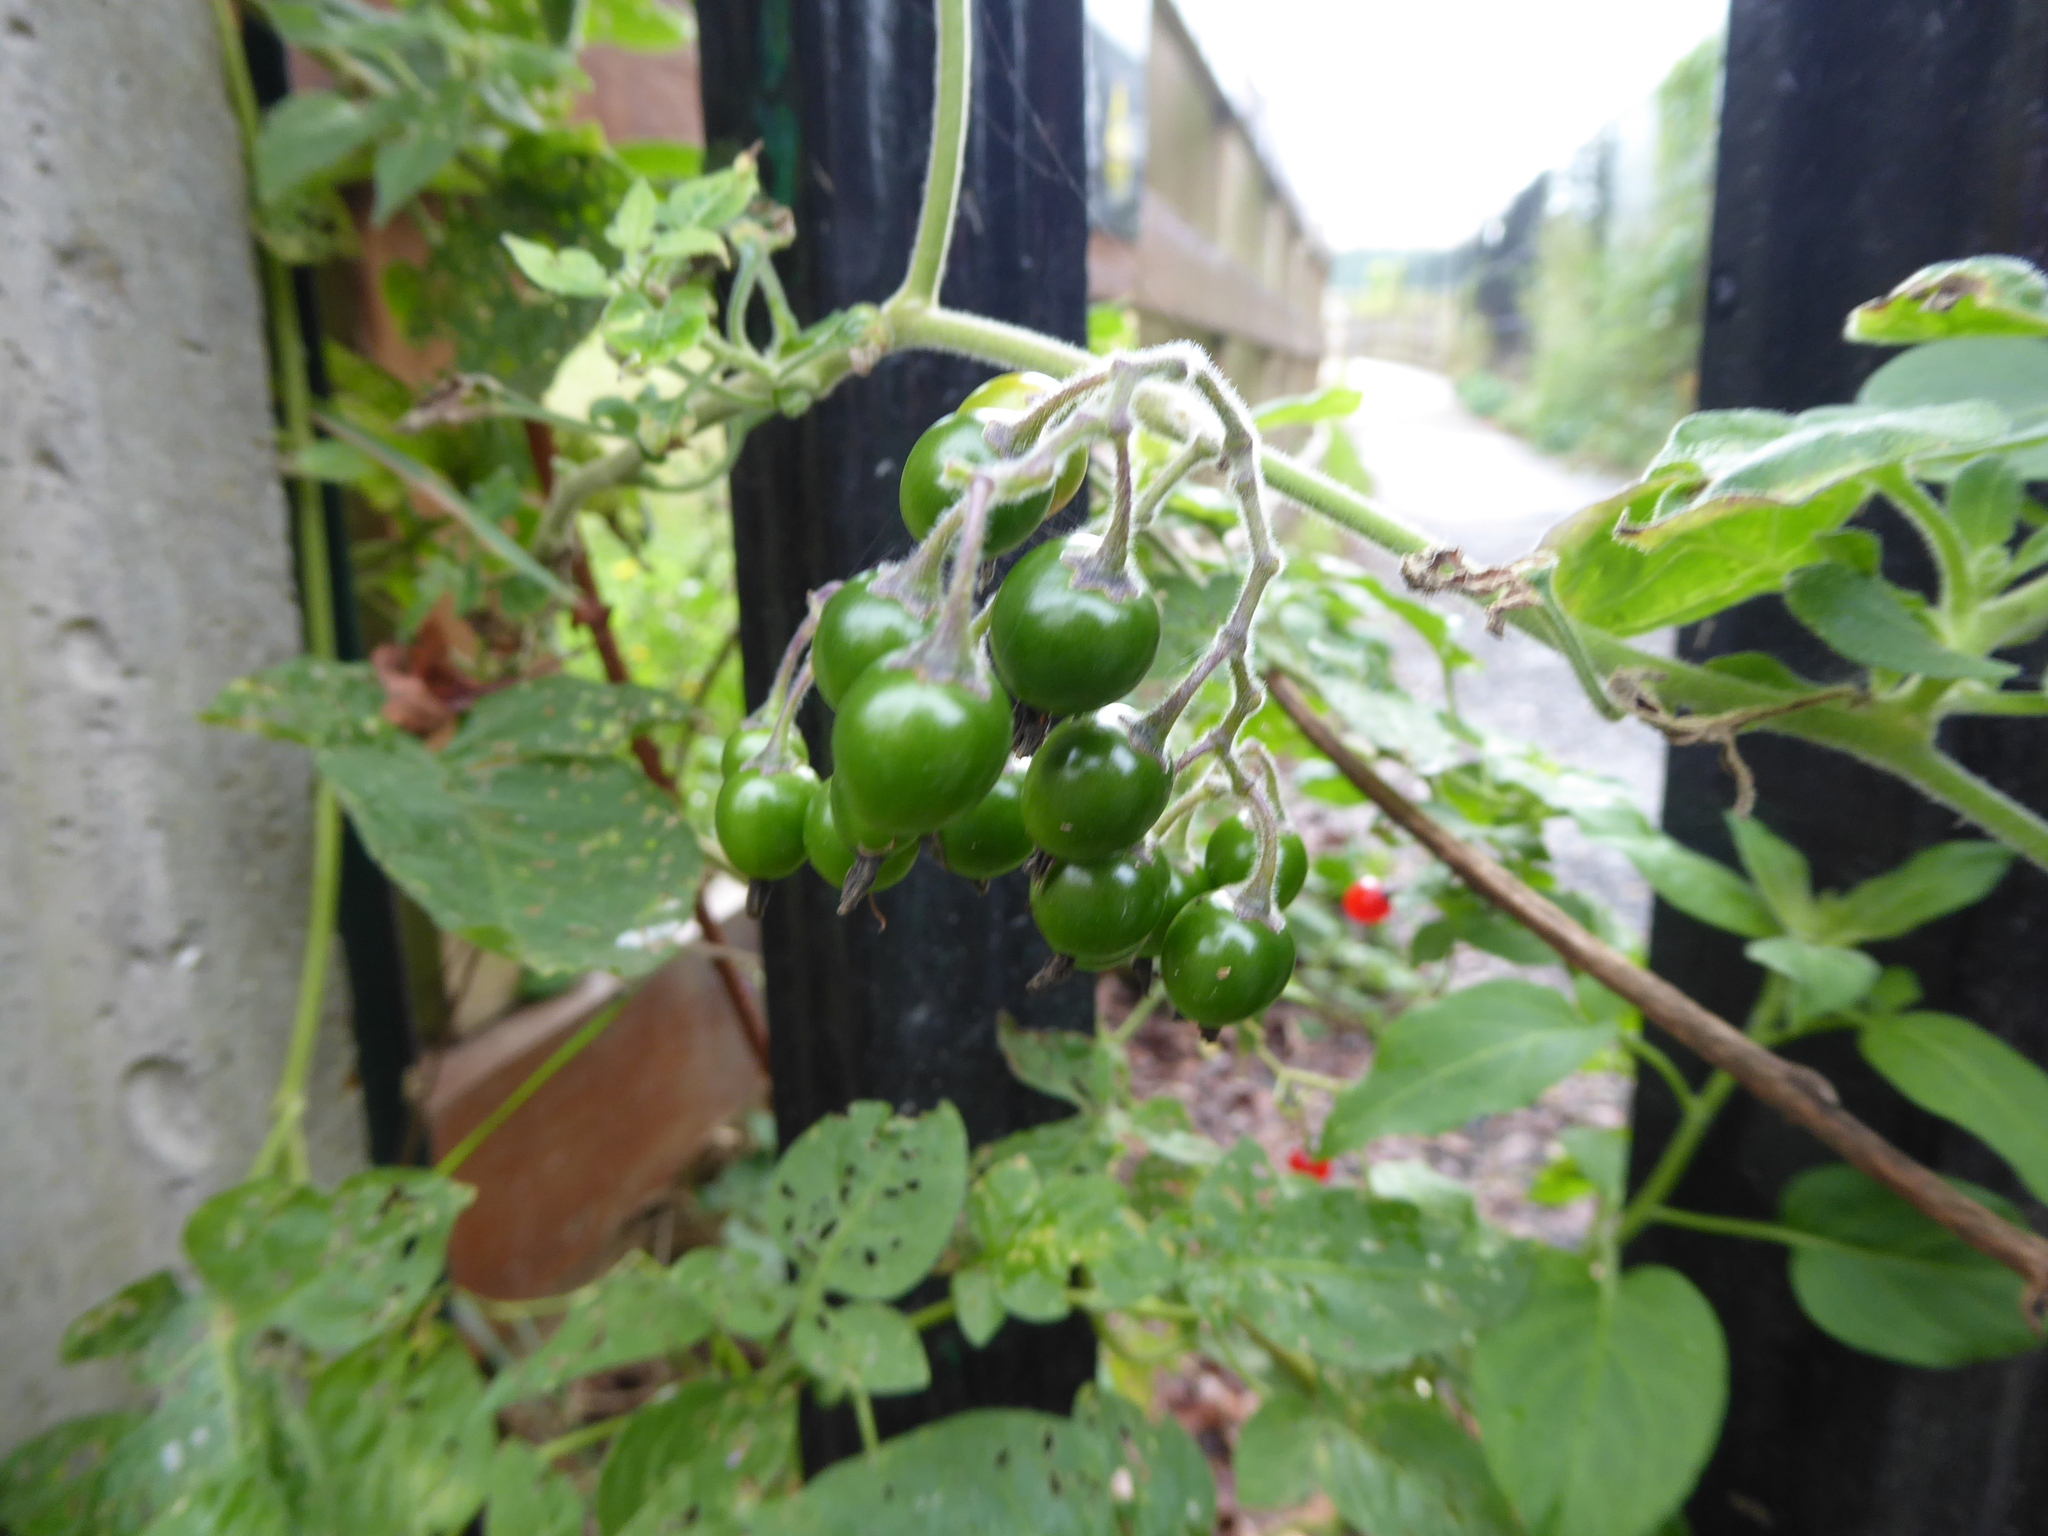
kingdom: Plantae
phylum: Tracheophyta
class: Magnoliopsida
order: Solanales
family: Solanaceae
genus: Solanum
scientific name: Solanum dulcamara
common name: Climbing nightshade
